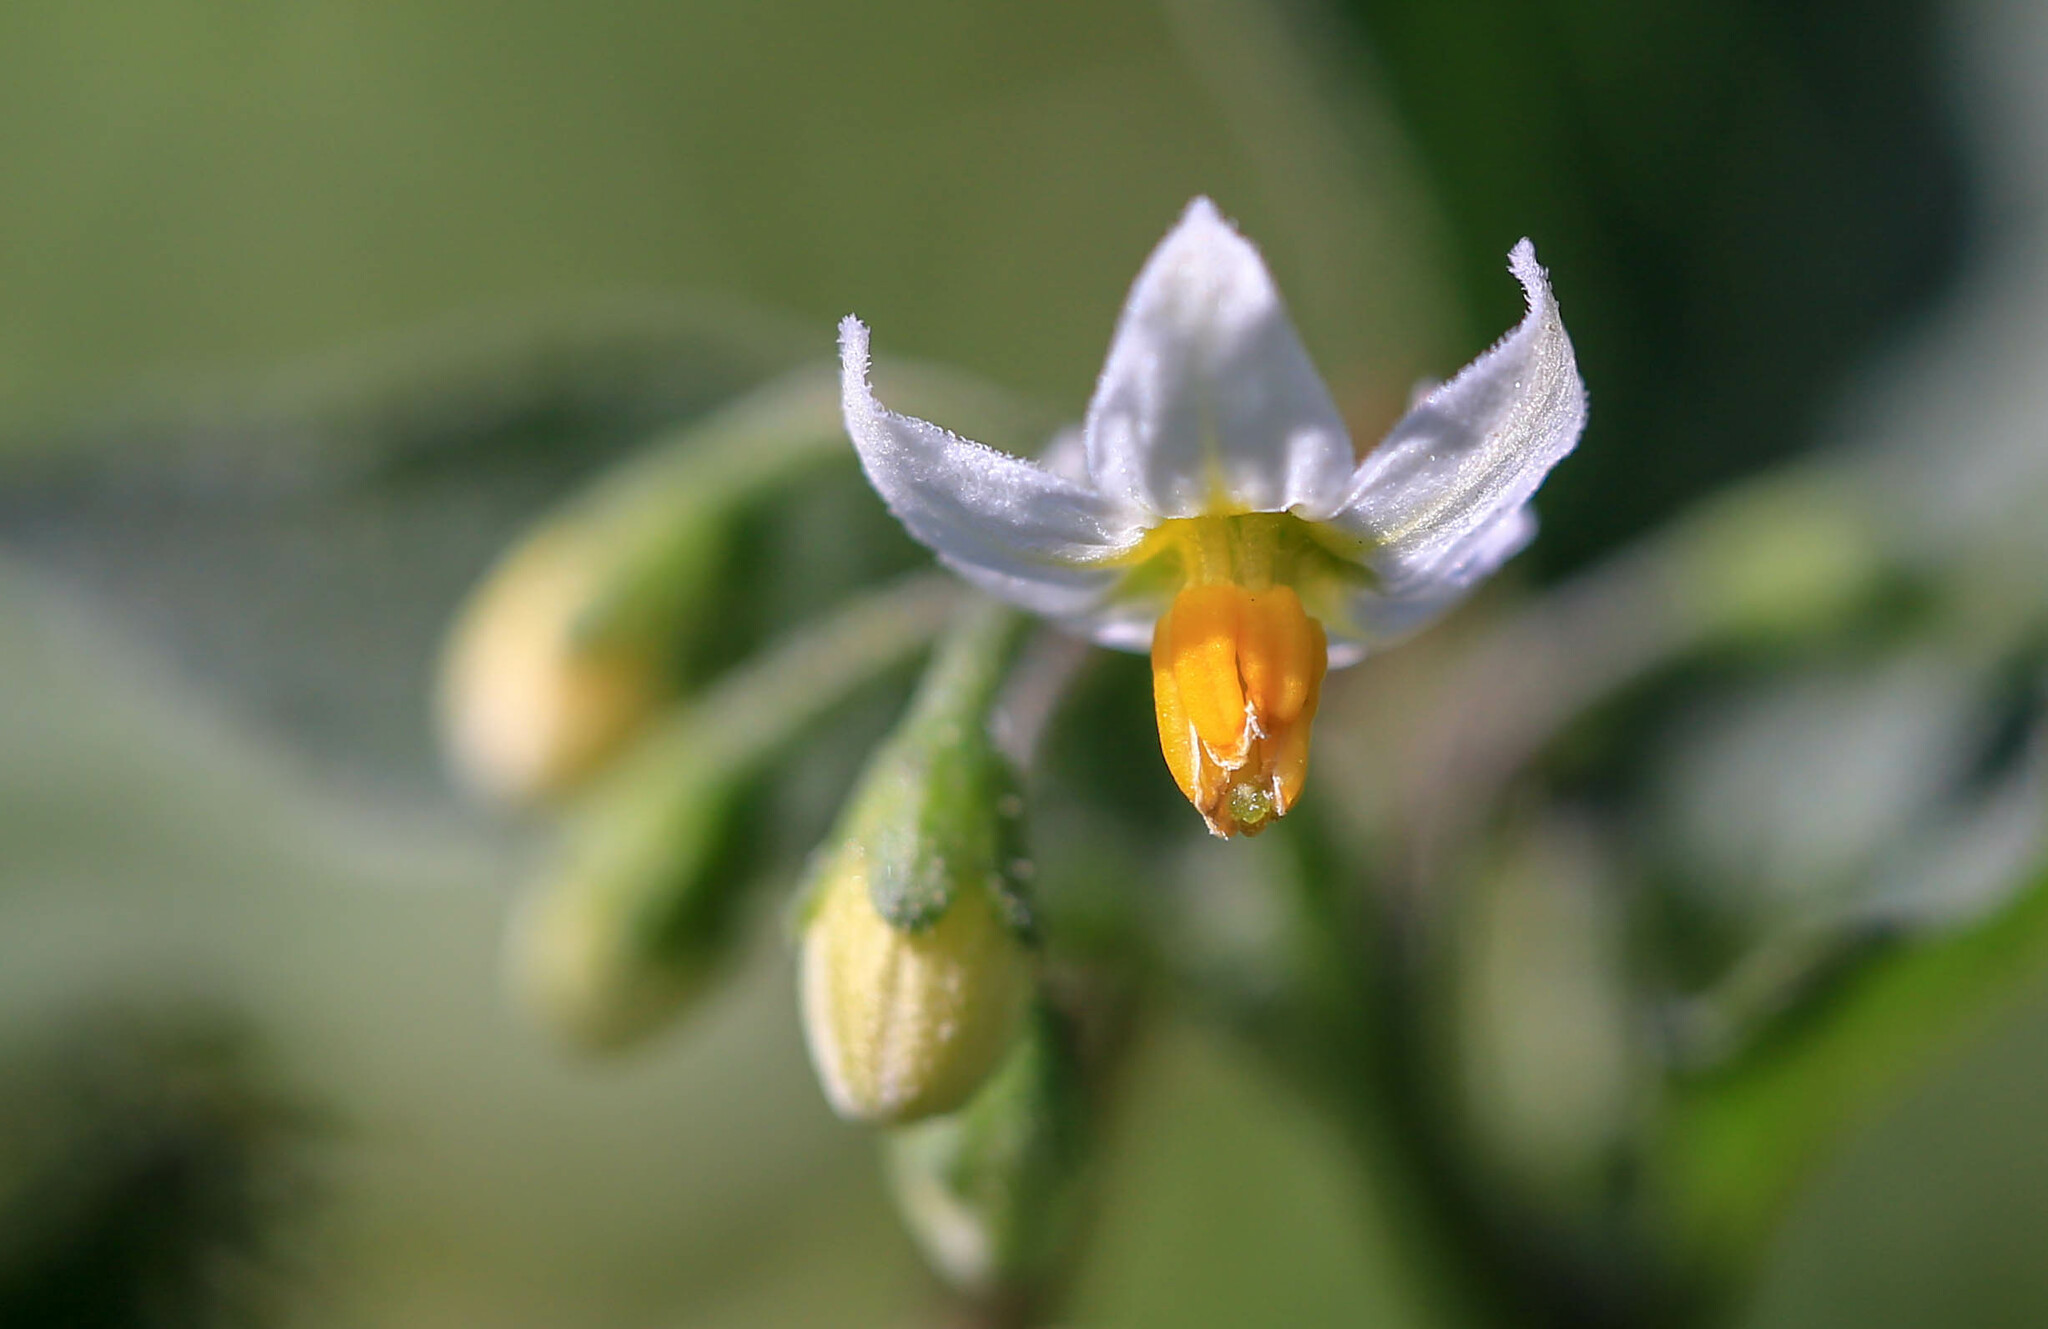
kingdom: Plantae
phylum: Tracheophyta
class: Magnoliopsida
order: Solanales
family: Solanaceae
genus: Solanum
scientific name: Solanum nigrum
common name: Black nightshade
